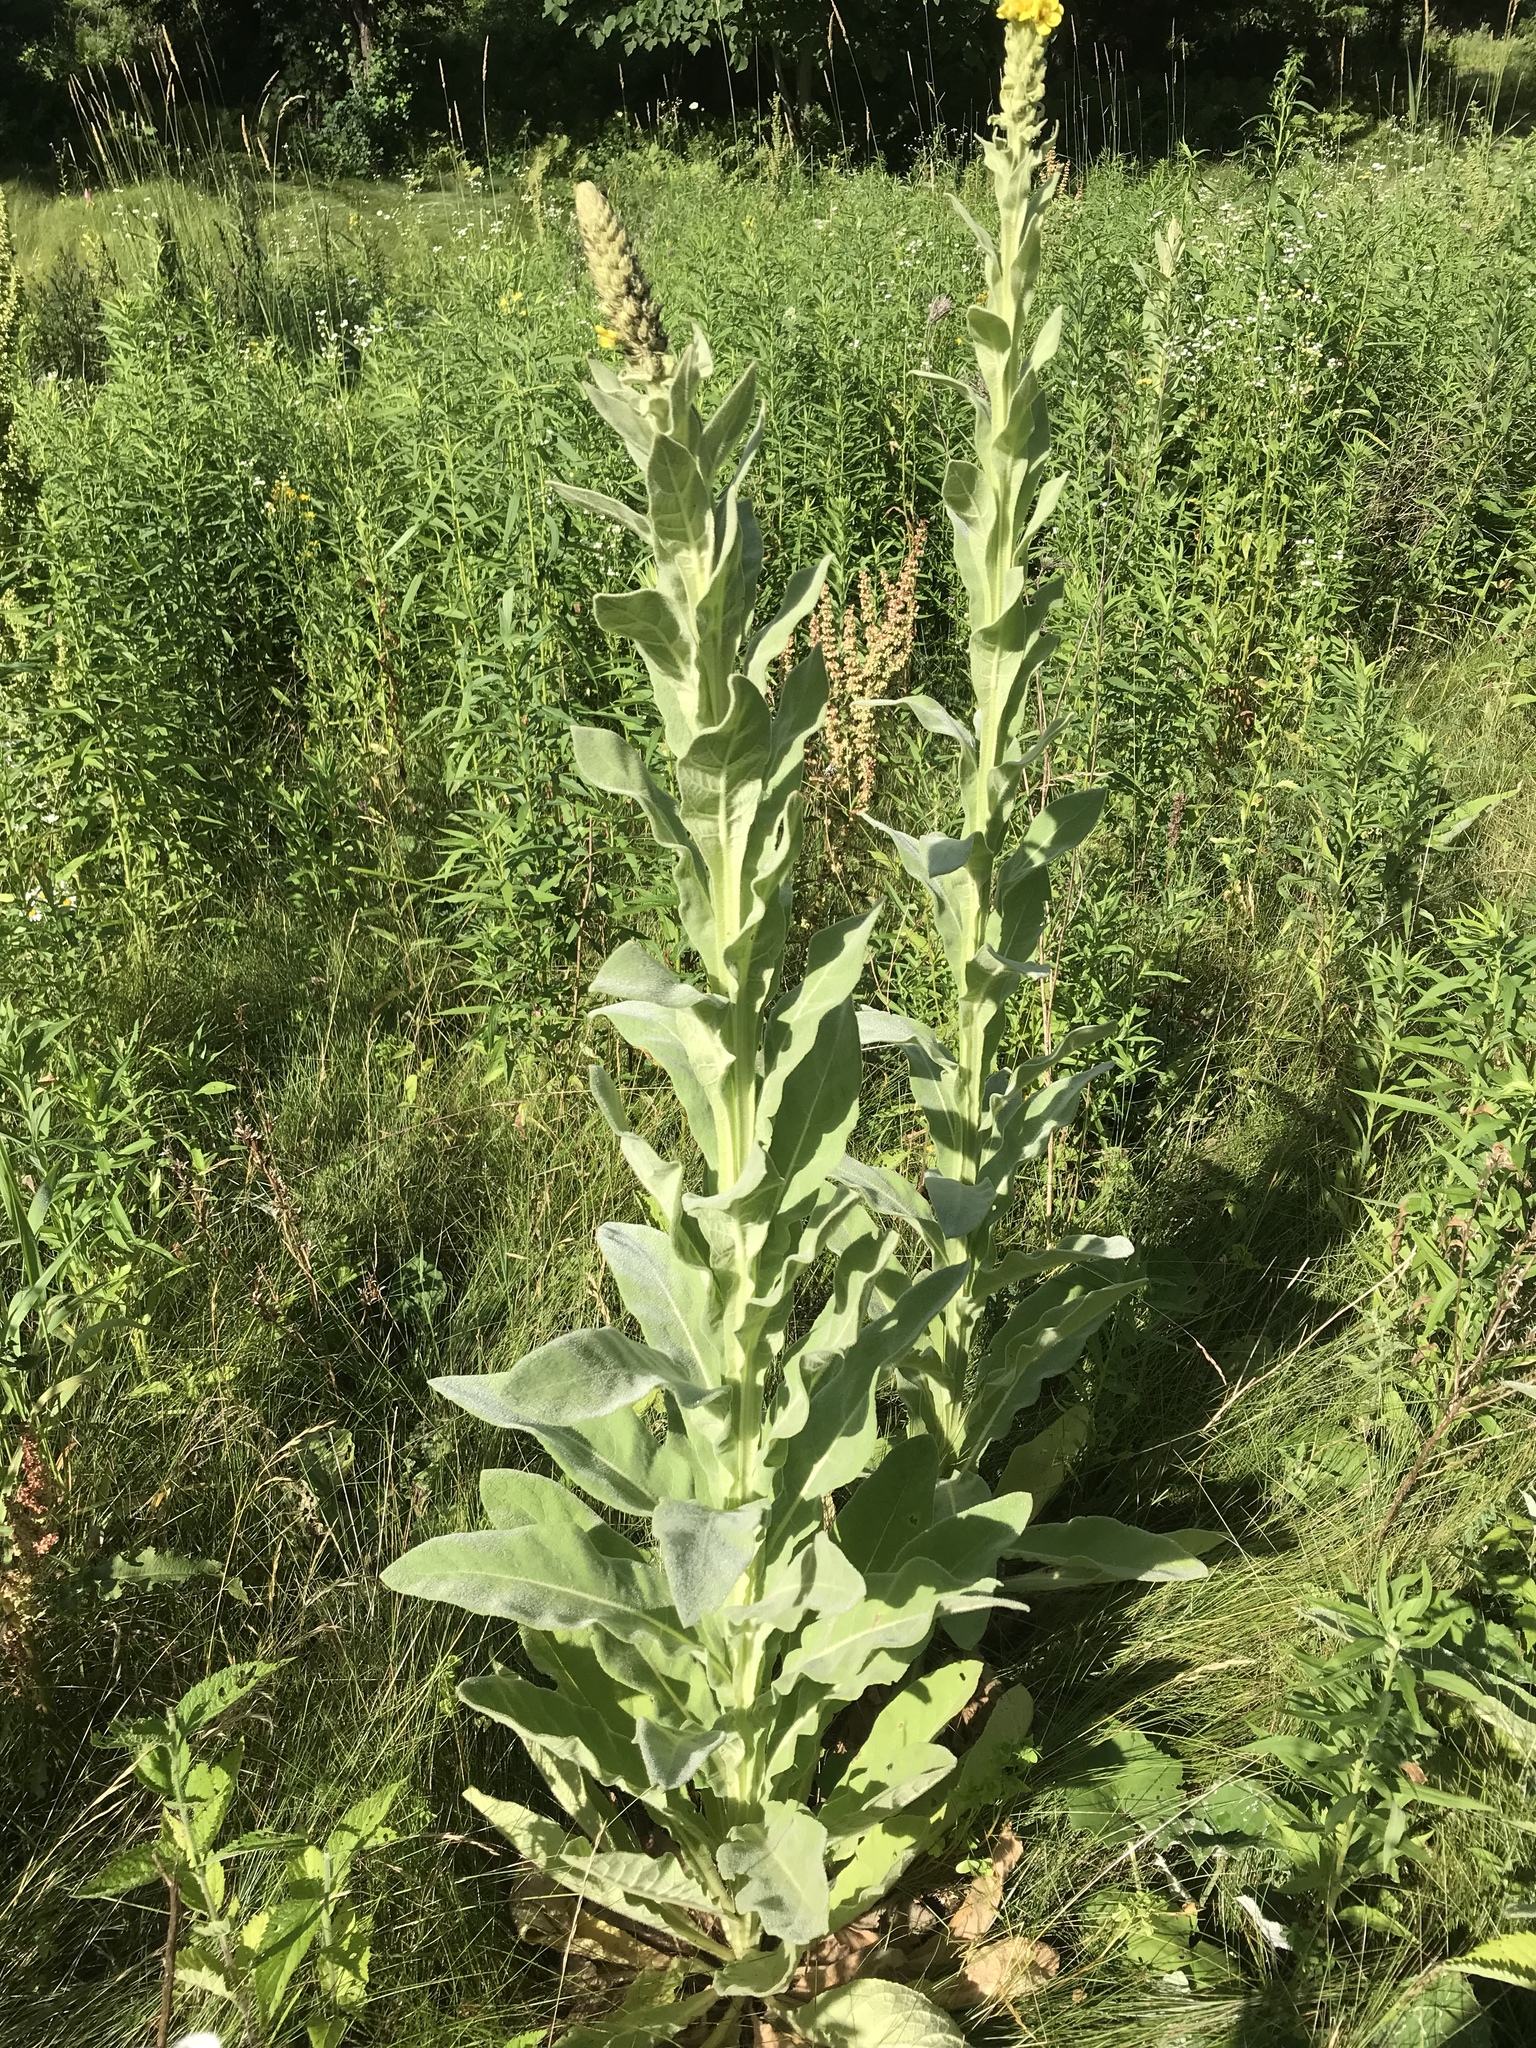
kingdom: Plantae
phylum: Tracheophyta
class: Magnoliopsida
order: Lamiales
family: Scrophulariaceae
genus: Verbascum
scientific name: Verbascum thapsus
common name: Common mullein
